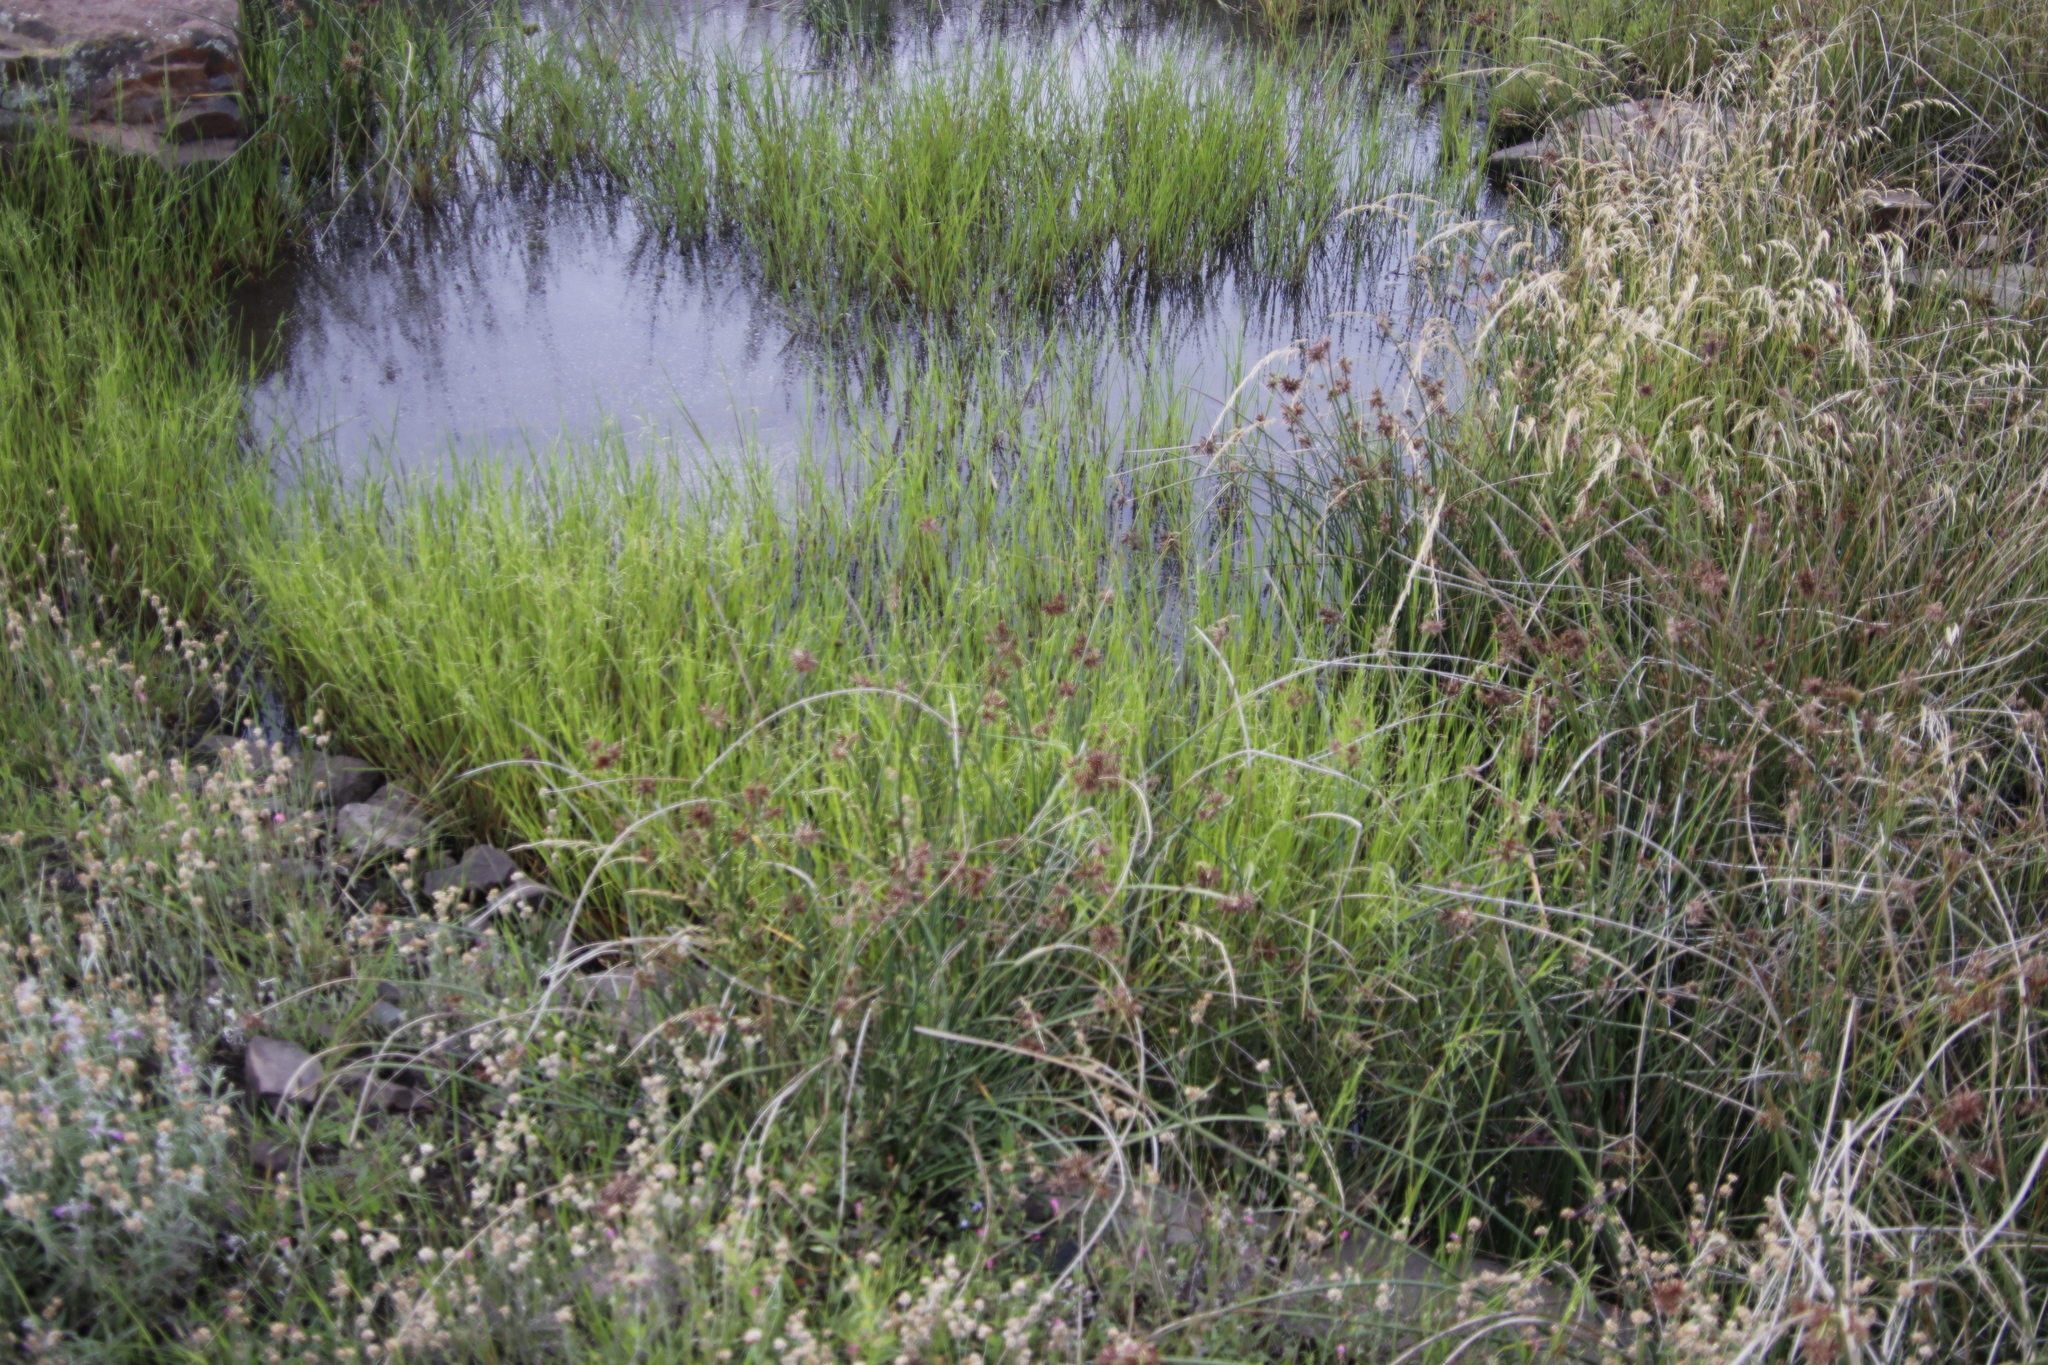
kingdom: Plantae
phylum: Tracheophyta
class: Liliopsida
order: Poales
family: Cyperaceae
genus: Cyperus
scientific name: Cyperus marginatus
